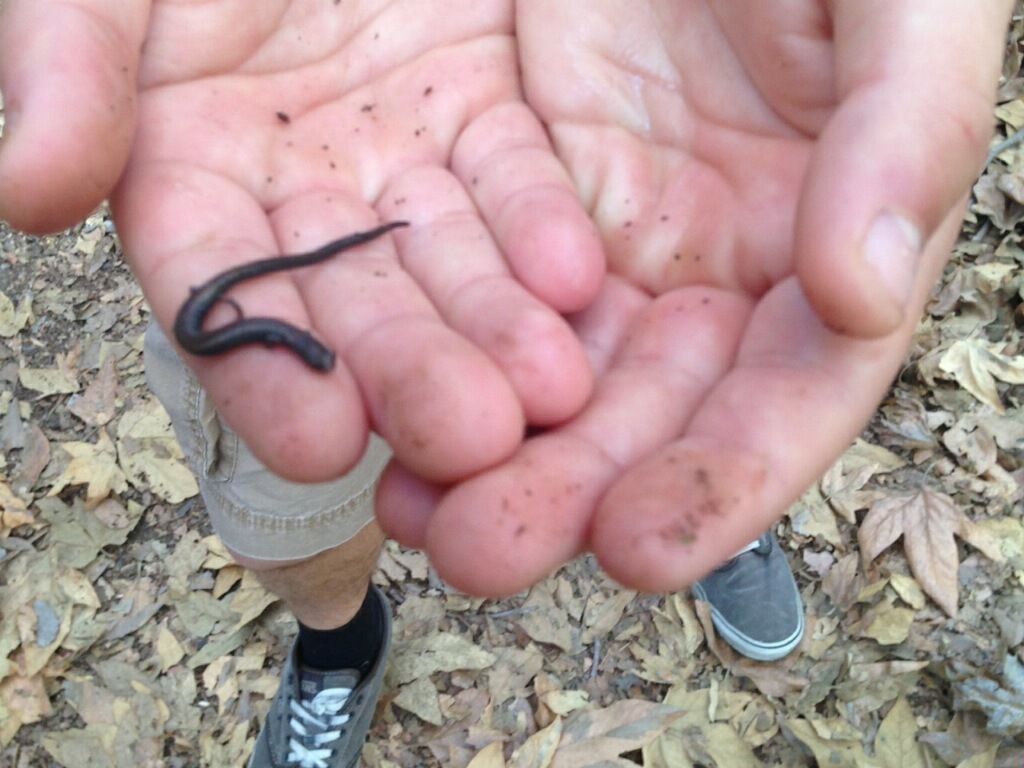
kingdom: Animalia
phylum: Chordata
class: Amphibia
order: Caudata
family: Plethodontidae
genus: Batrachoseps
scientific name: Batrachoseps nigriventris
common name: Black-bellied slender salamander
